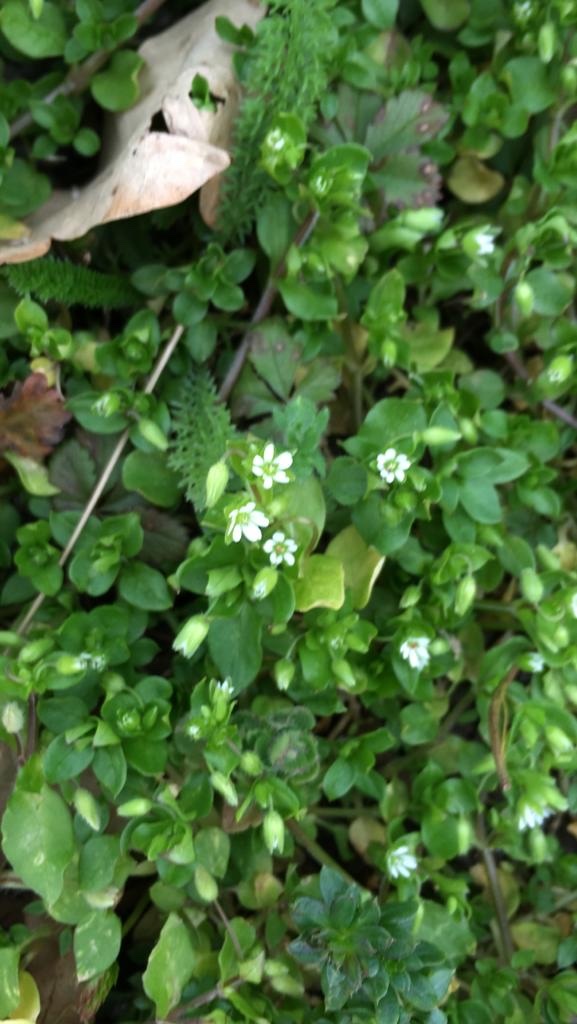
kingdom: Plantae
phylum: Tracheophyta
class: Magnoliopsida
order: Caryophyllales
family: Caryophyllaceae
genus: Stellaria
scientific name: Stellaria media
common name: Common chickweed
